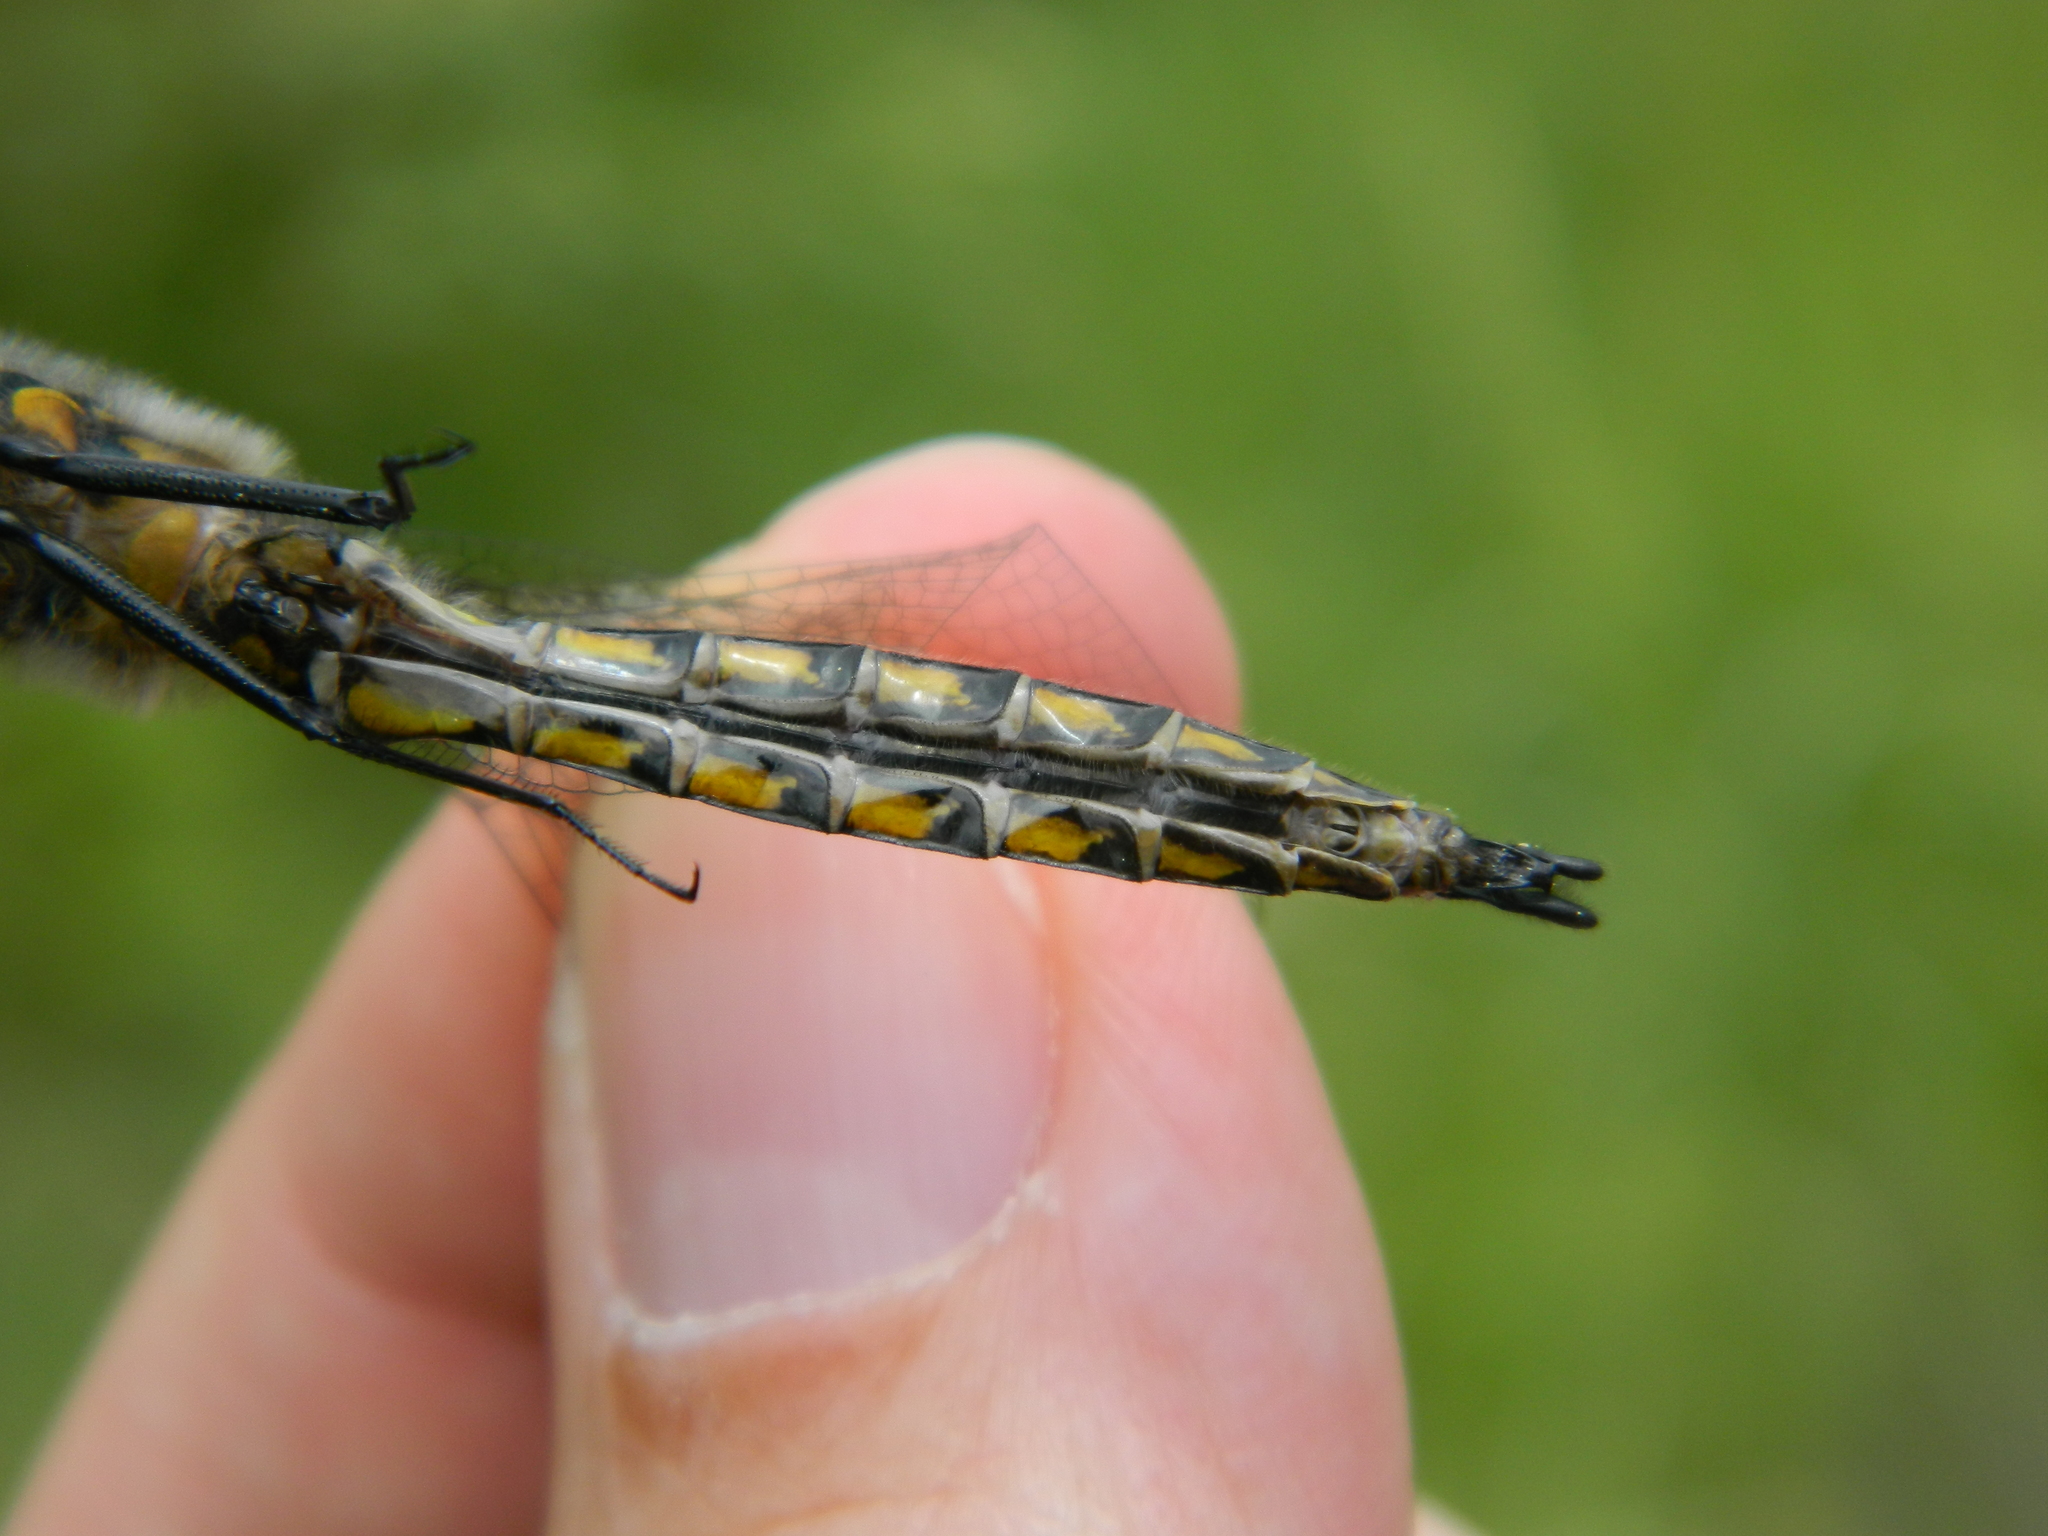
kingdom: Animalia
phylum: Arthropoda
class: Insecta
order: Odonata
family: Corduliidae
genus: Epitheca
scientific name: Epitheca spinigera
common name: Spiny baskettail
